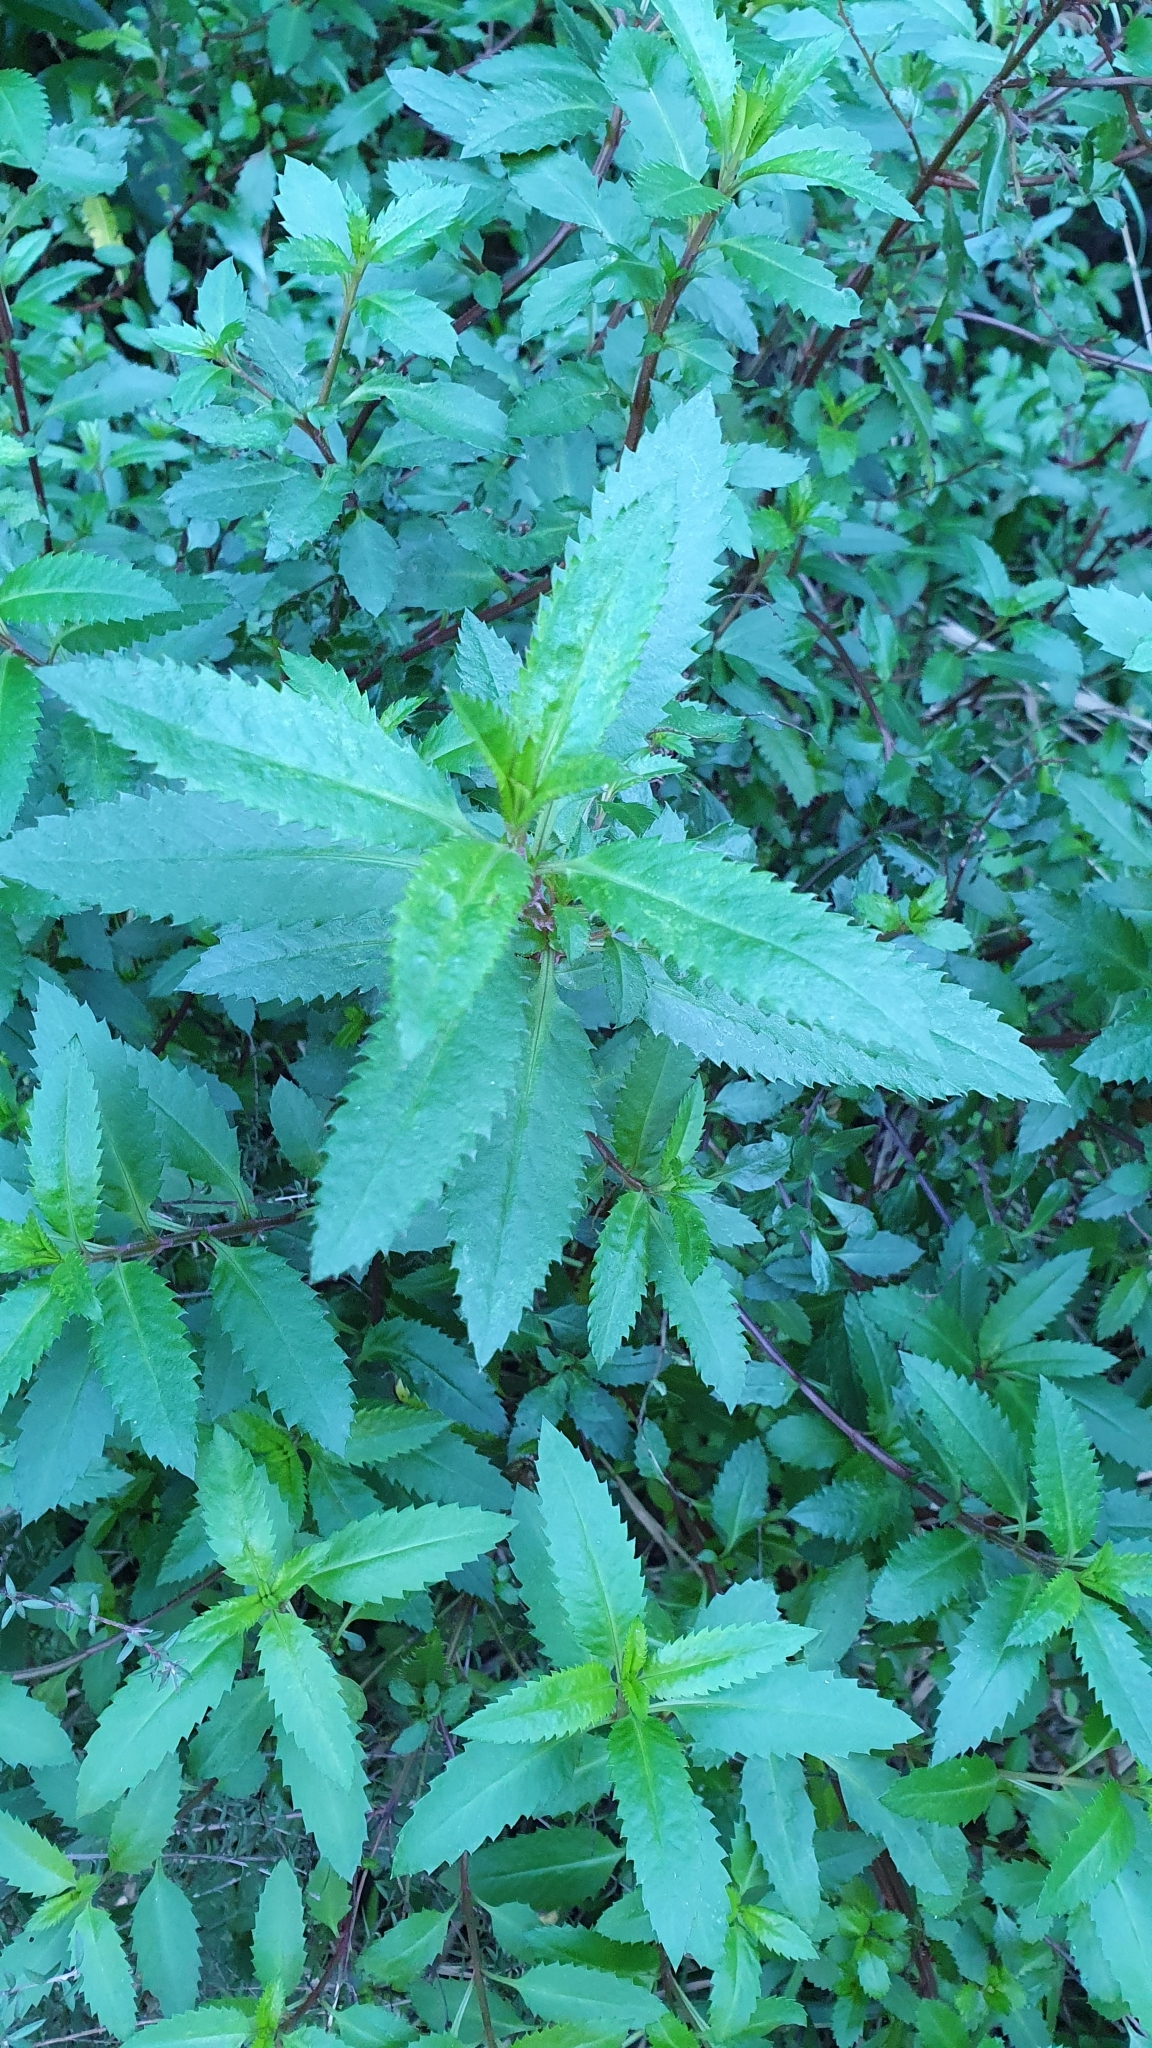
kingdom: Plantae
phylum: Tracheophyta
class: Magnoliopsida
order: Saxifragales
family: Haloragaceae
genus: Haloragis
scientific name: Haloragis erecta
